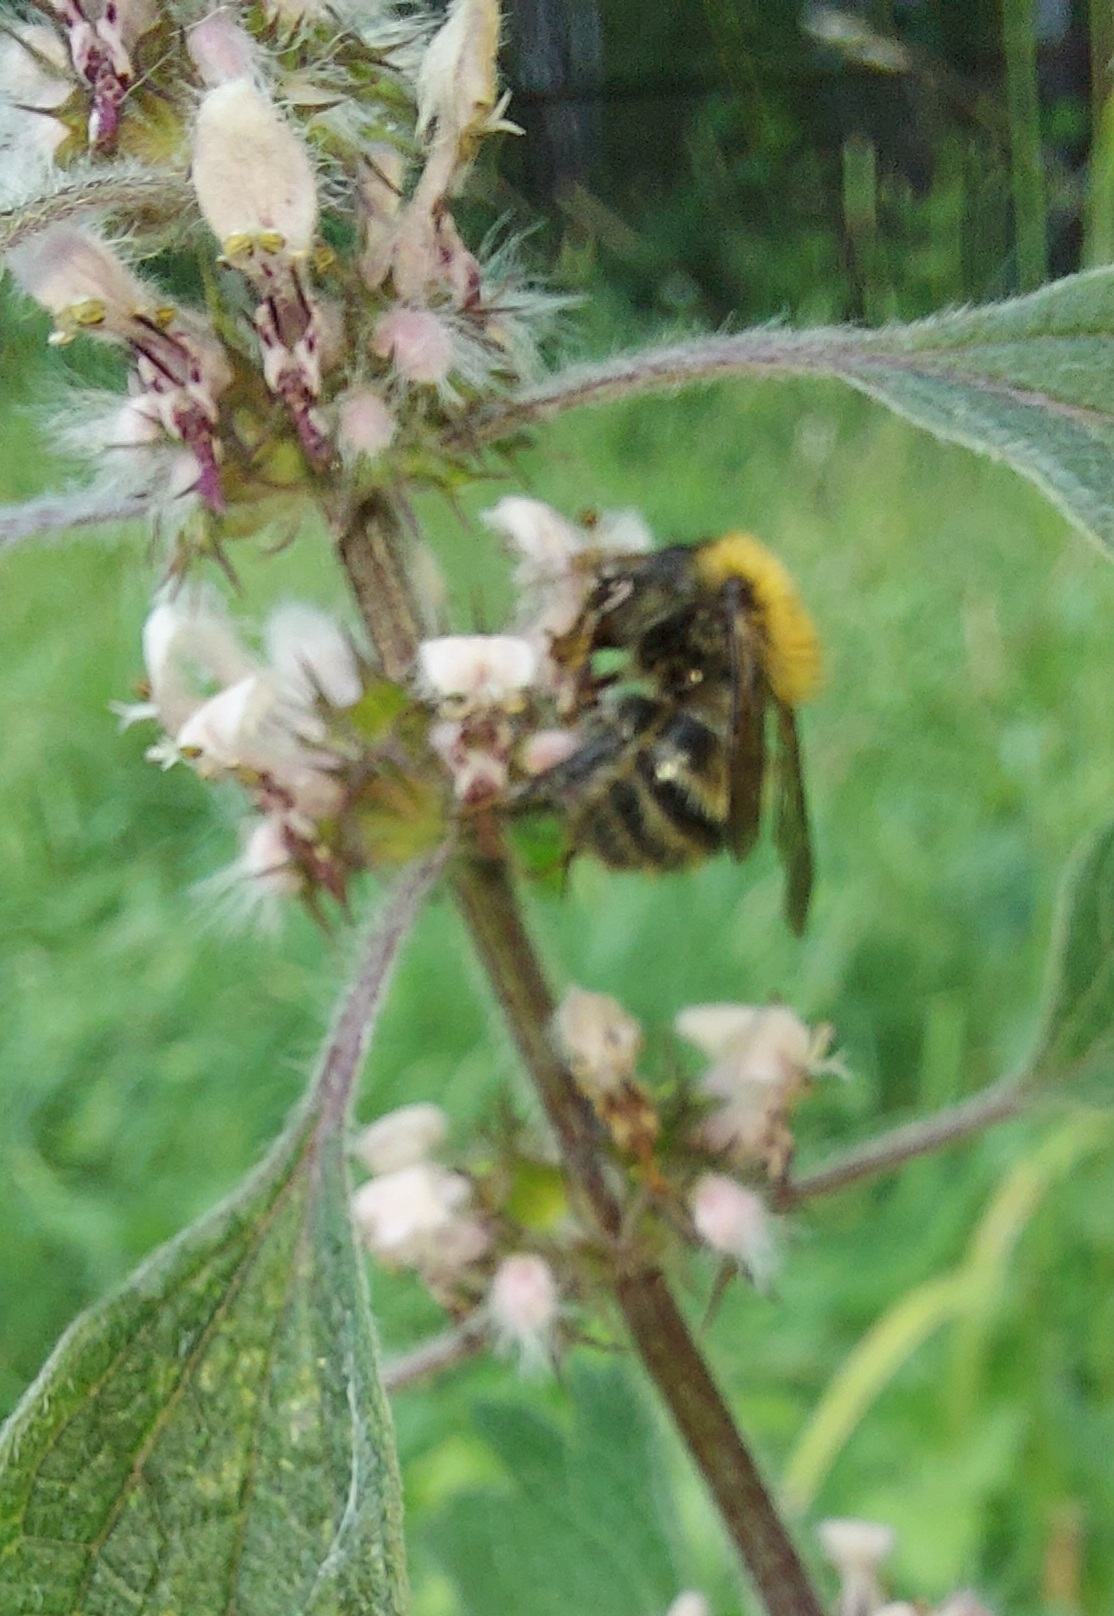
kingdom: Animalia
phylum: Arthropoda
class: Insecta
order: Hymenoptera
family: Apidae
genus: Bombus
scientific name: Bombus schrencki
